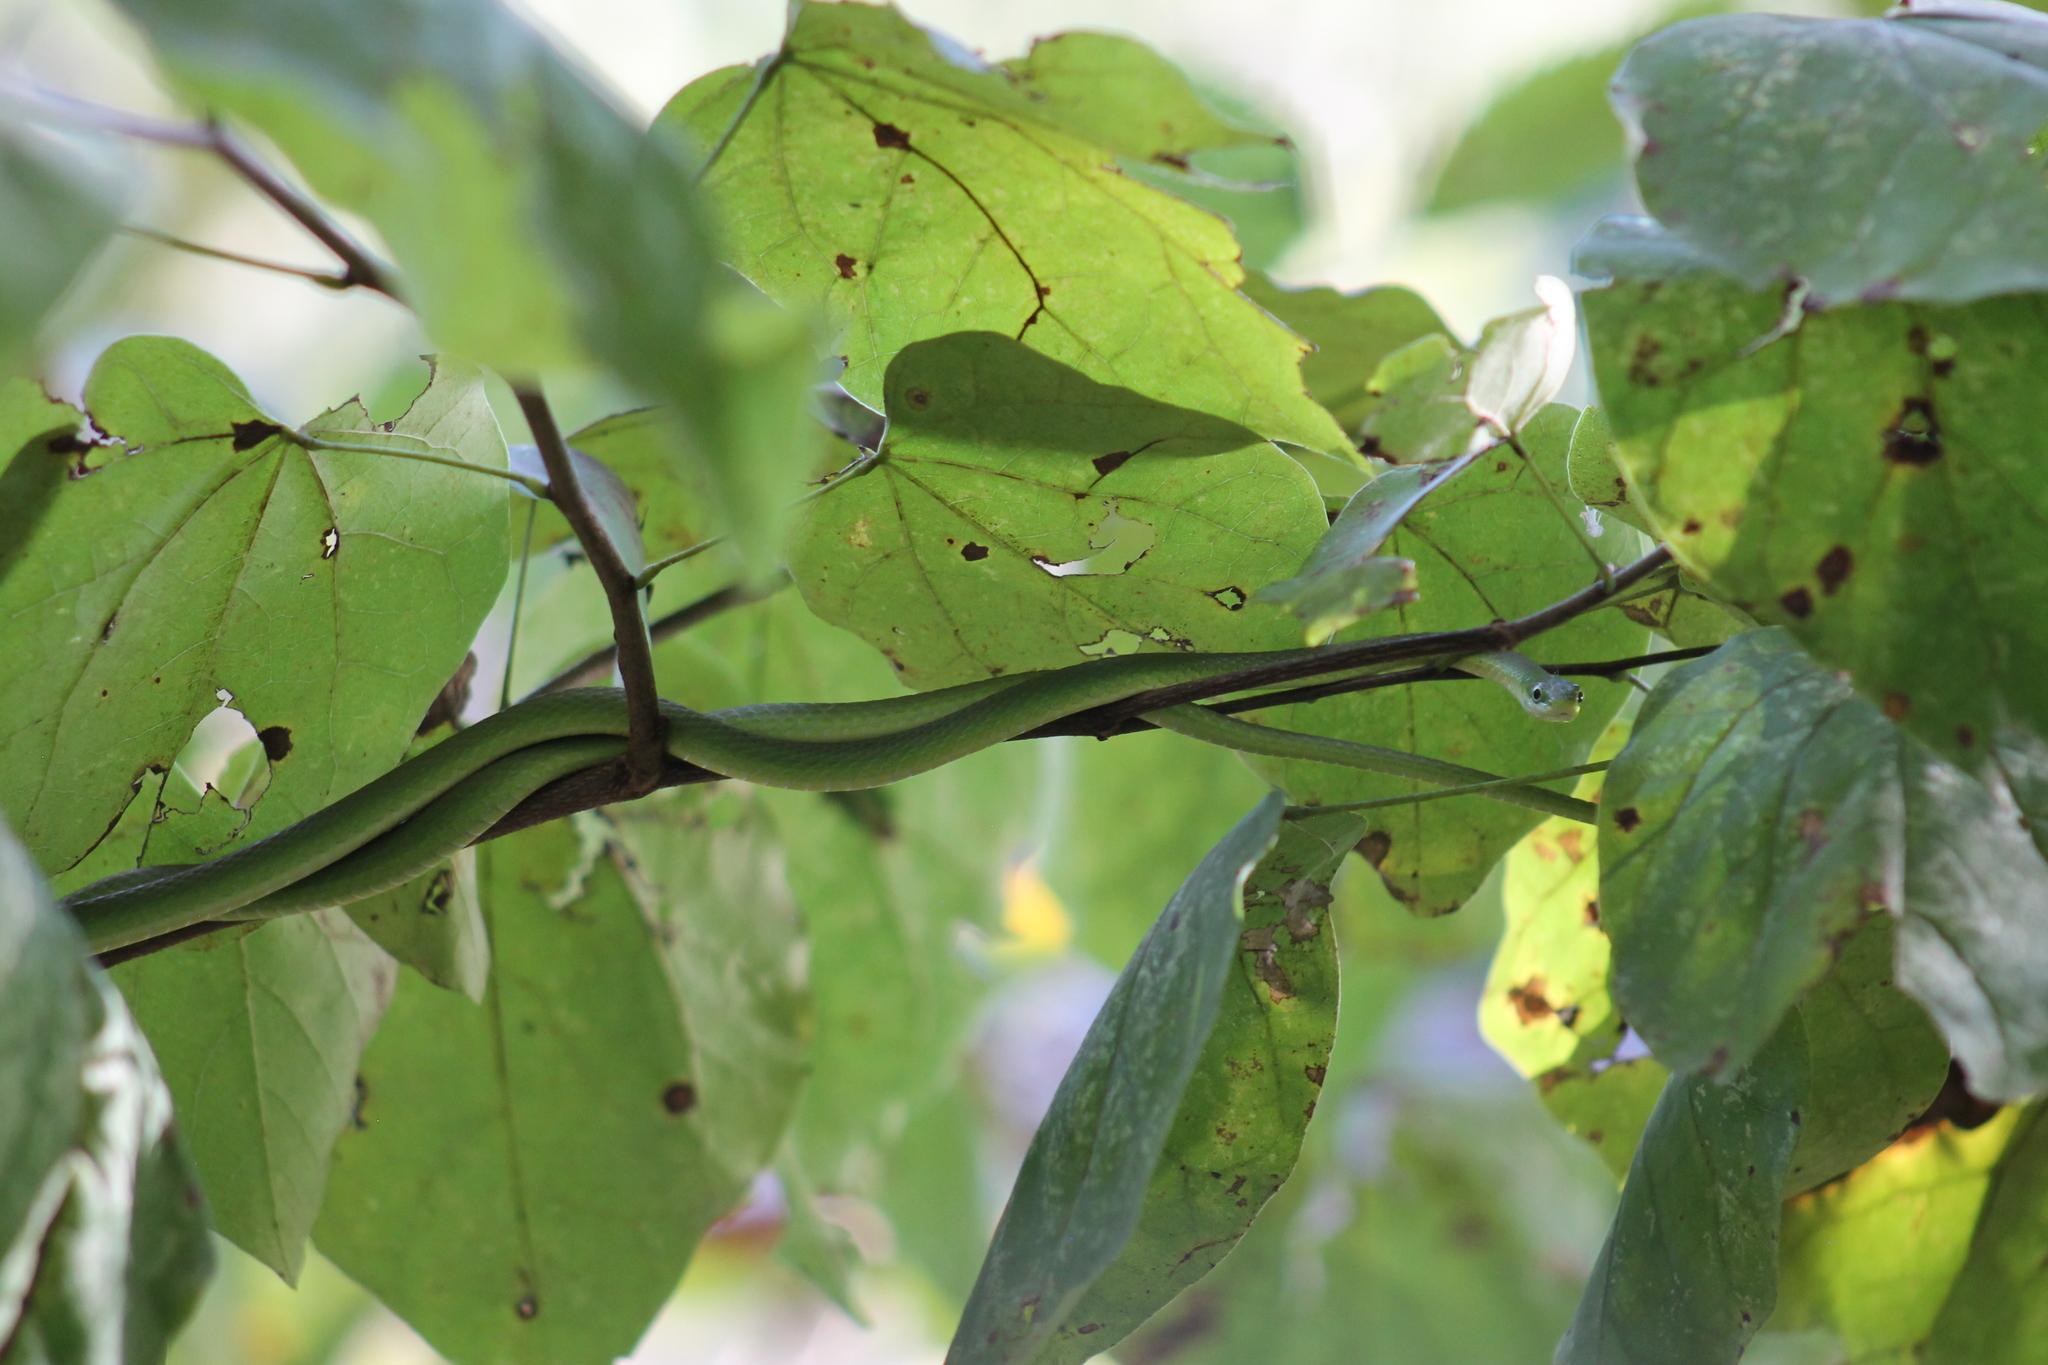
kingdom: Animalia
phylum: Chordata
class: Squamata
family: Colubridae
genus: Opheodrys
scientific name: Opheodrys aestivus
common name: Rough greensnake
